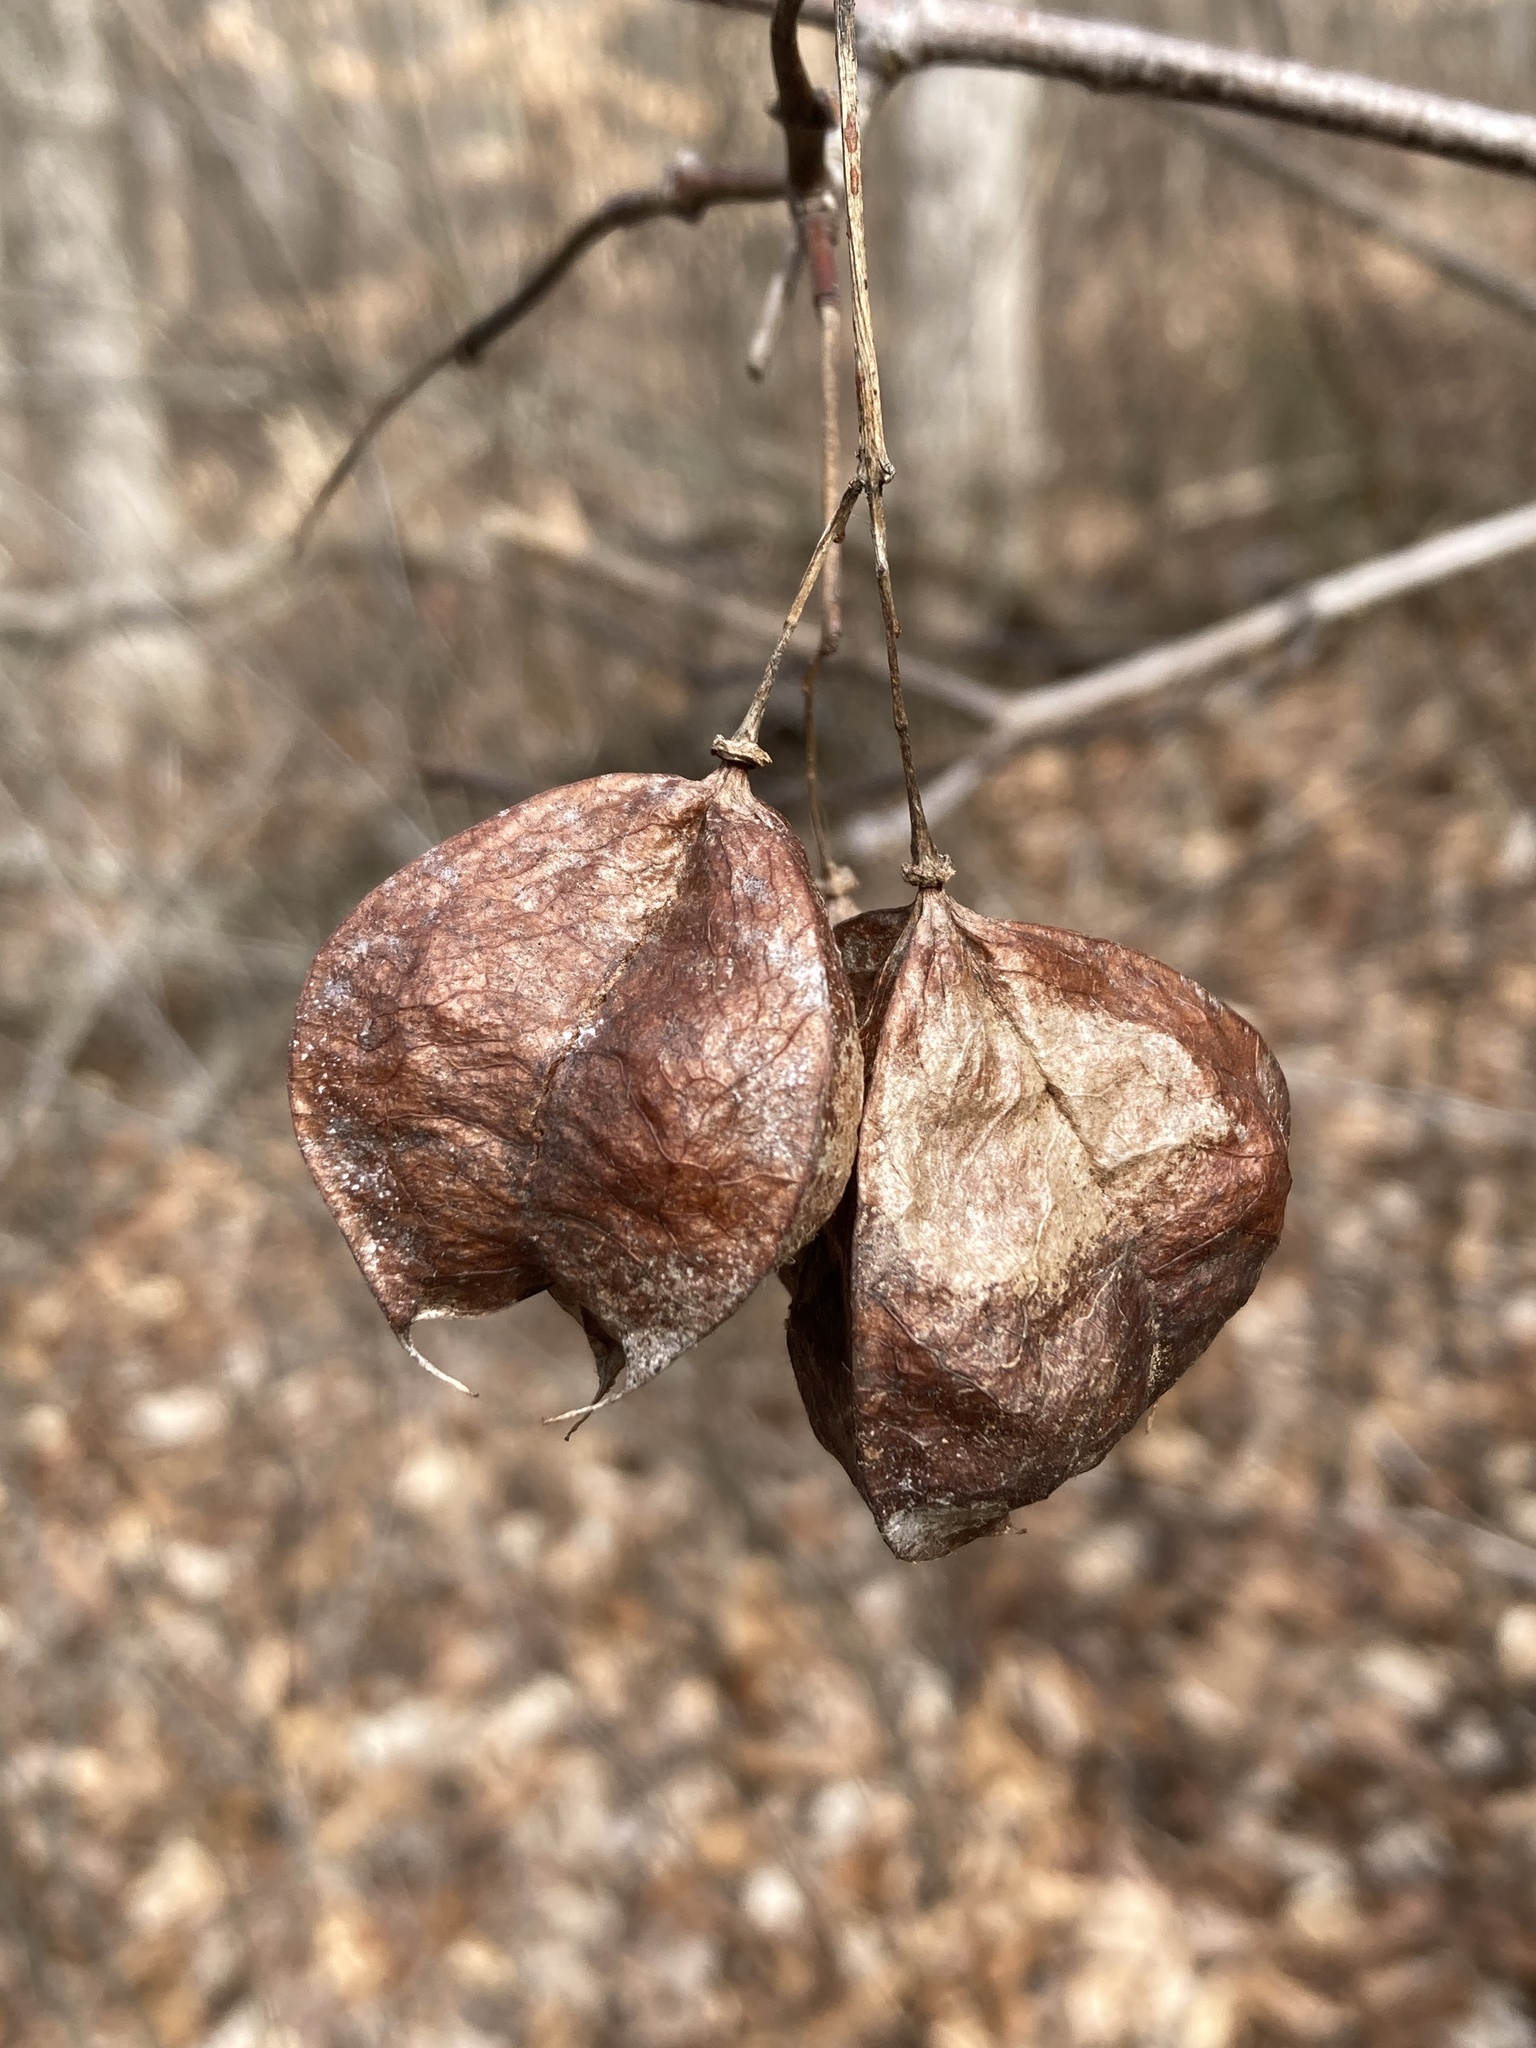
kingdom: Plantae
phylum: Tracheophyta
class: Magnoliopsida
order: Crossosomatales
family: Staphyleaceae
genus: Staphylea
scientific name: Staphylea trifolia
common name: American bladdernut
